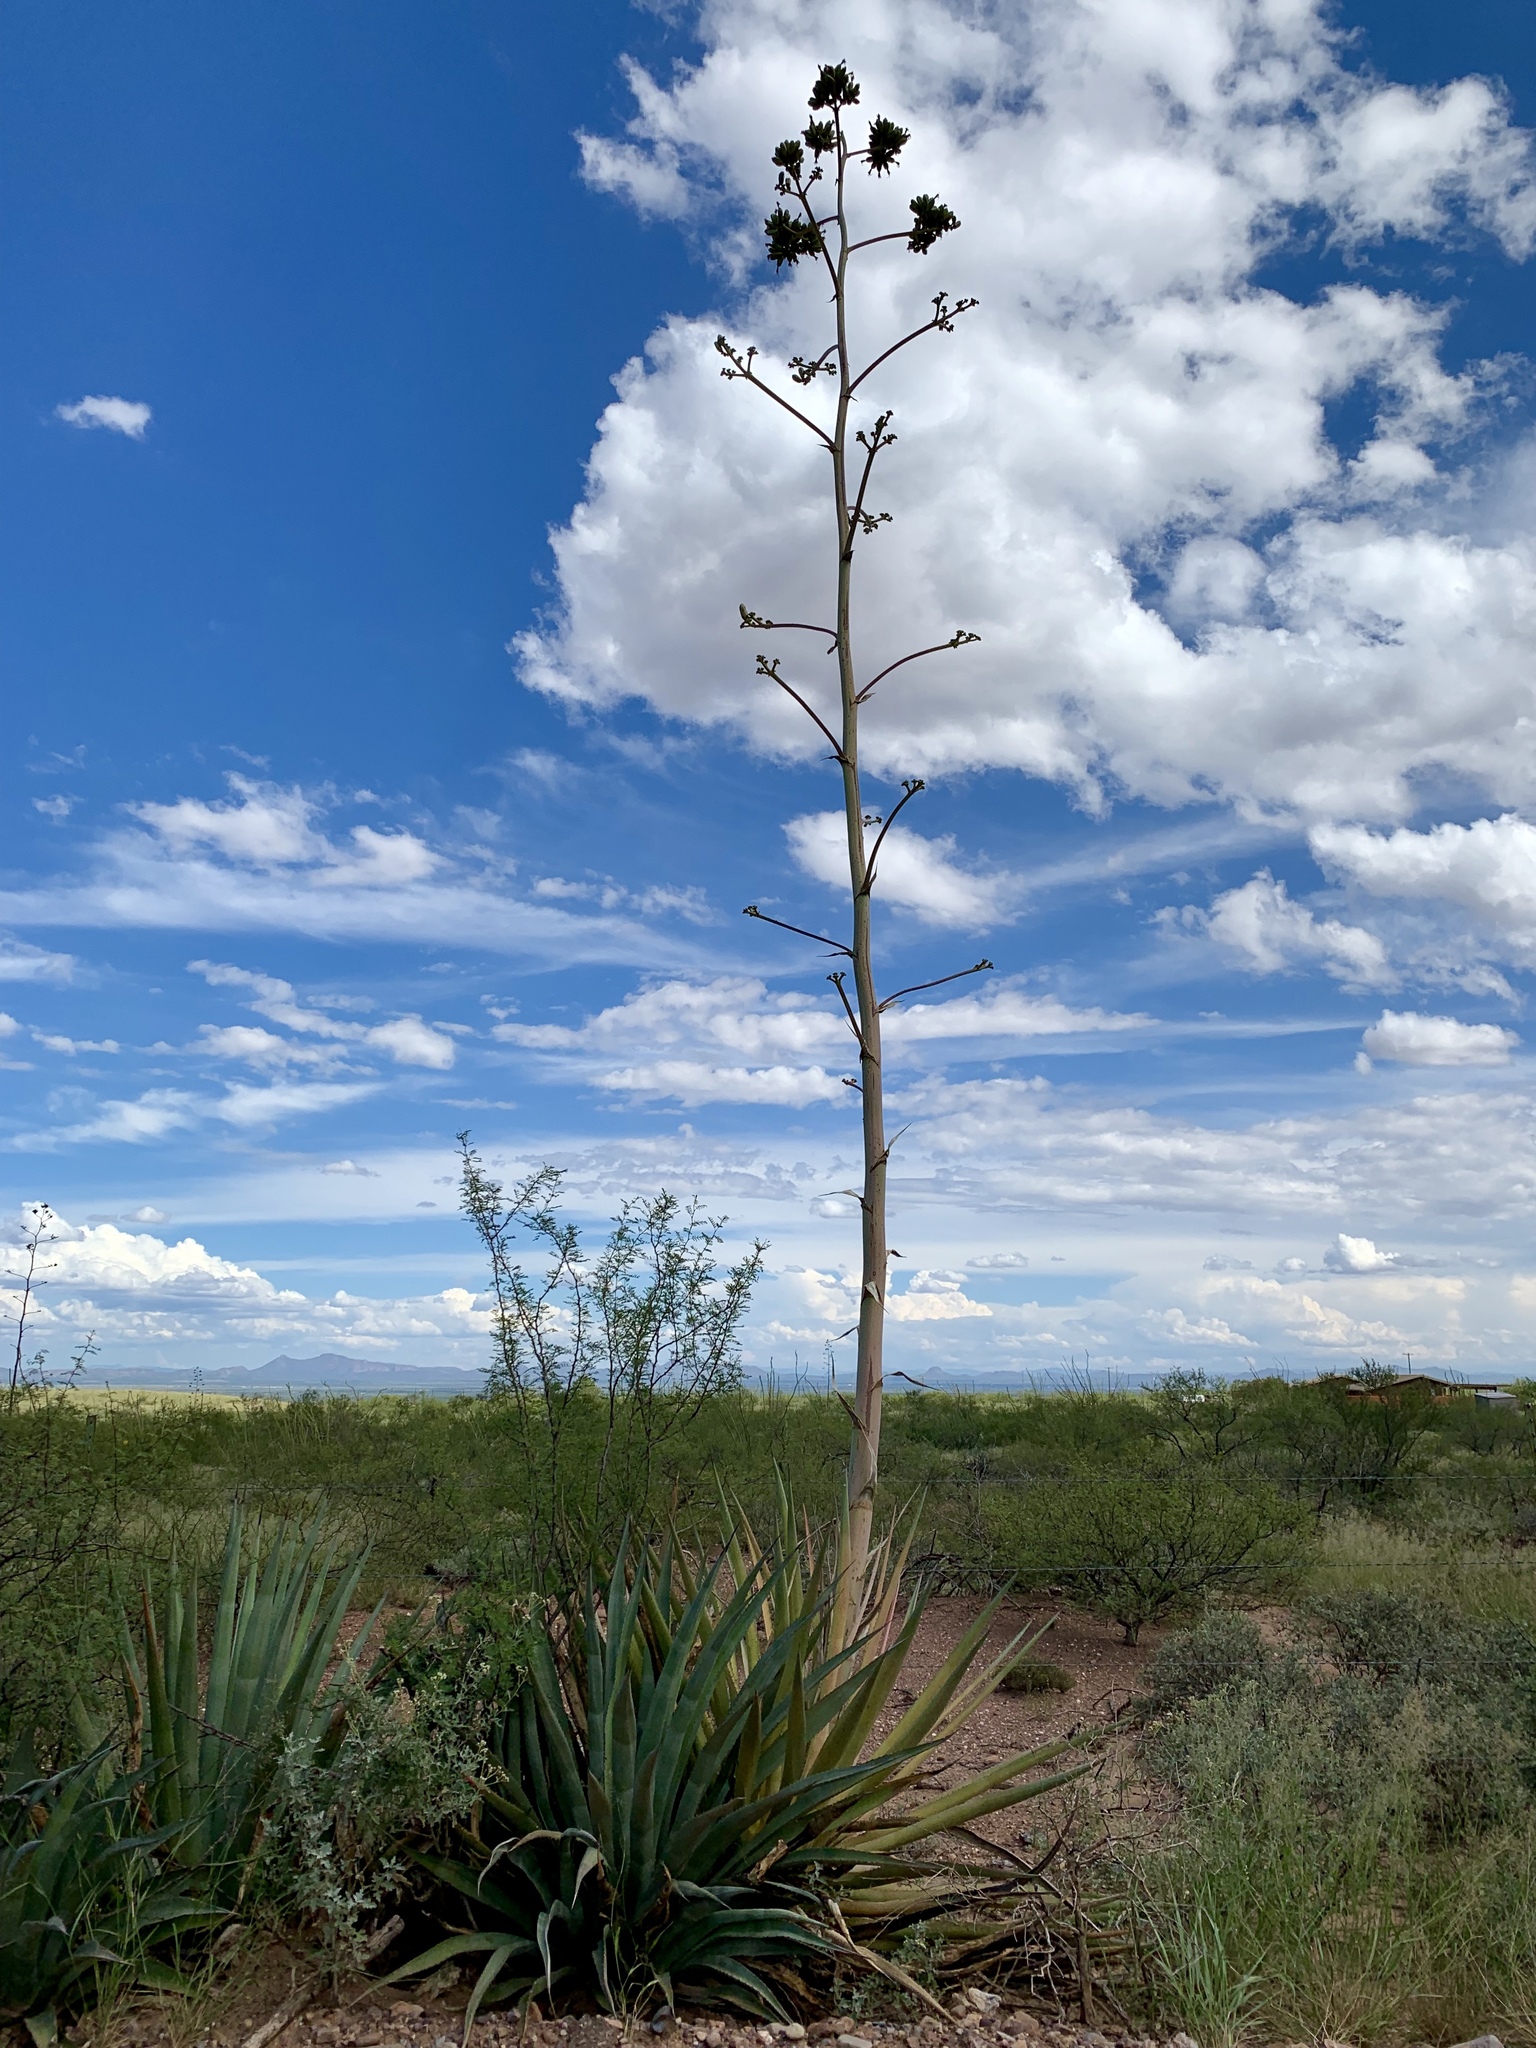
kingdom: Plantae
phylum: Tracheophyta
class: Liliopsida
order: Asparagales
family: Asparagaceae
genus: Agave
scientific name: Agave palmeri
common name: Palmer agave
